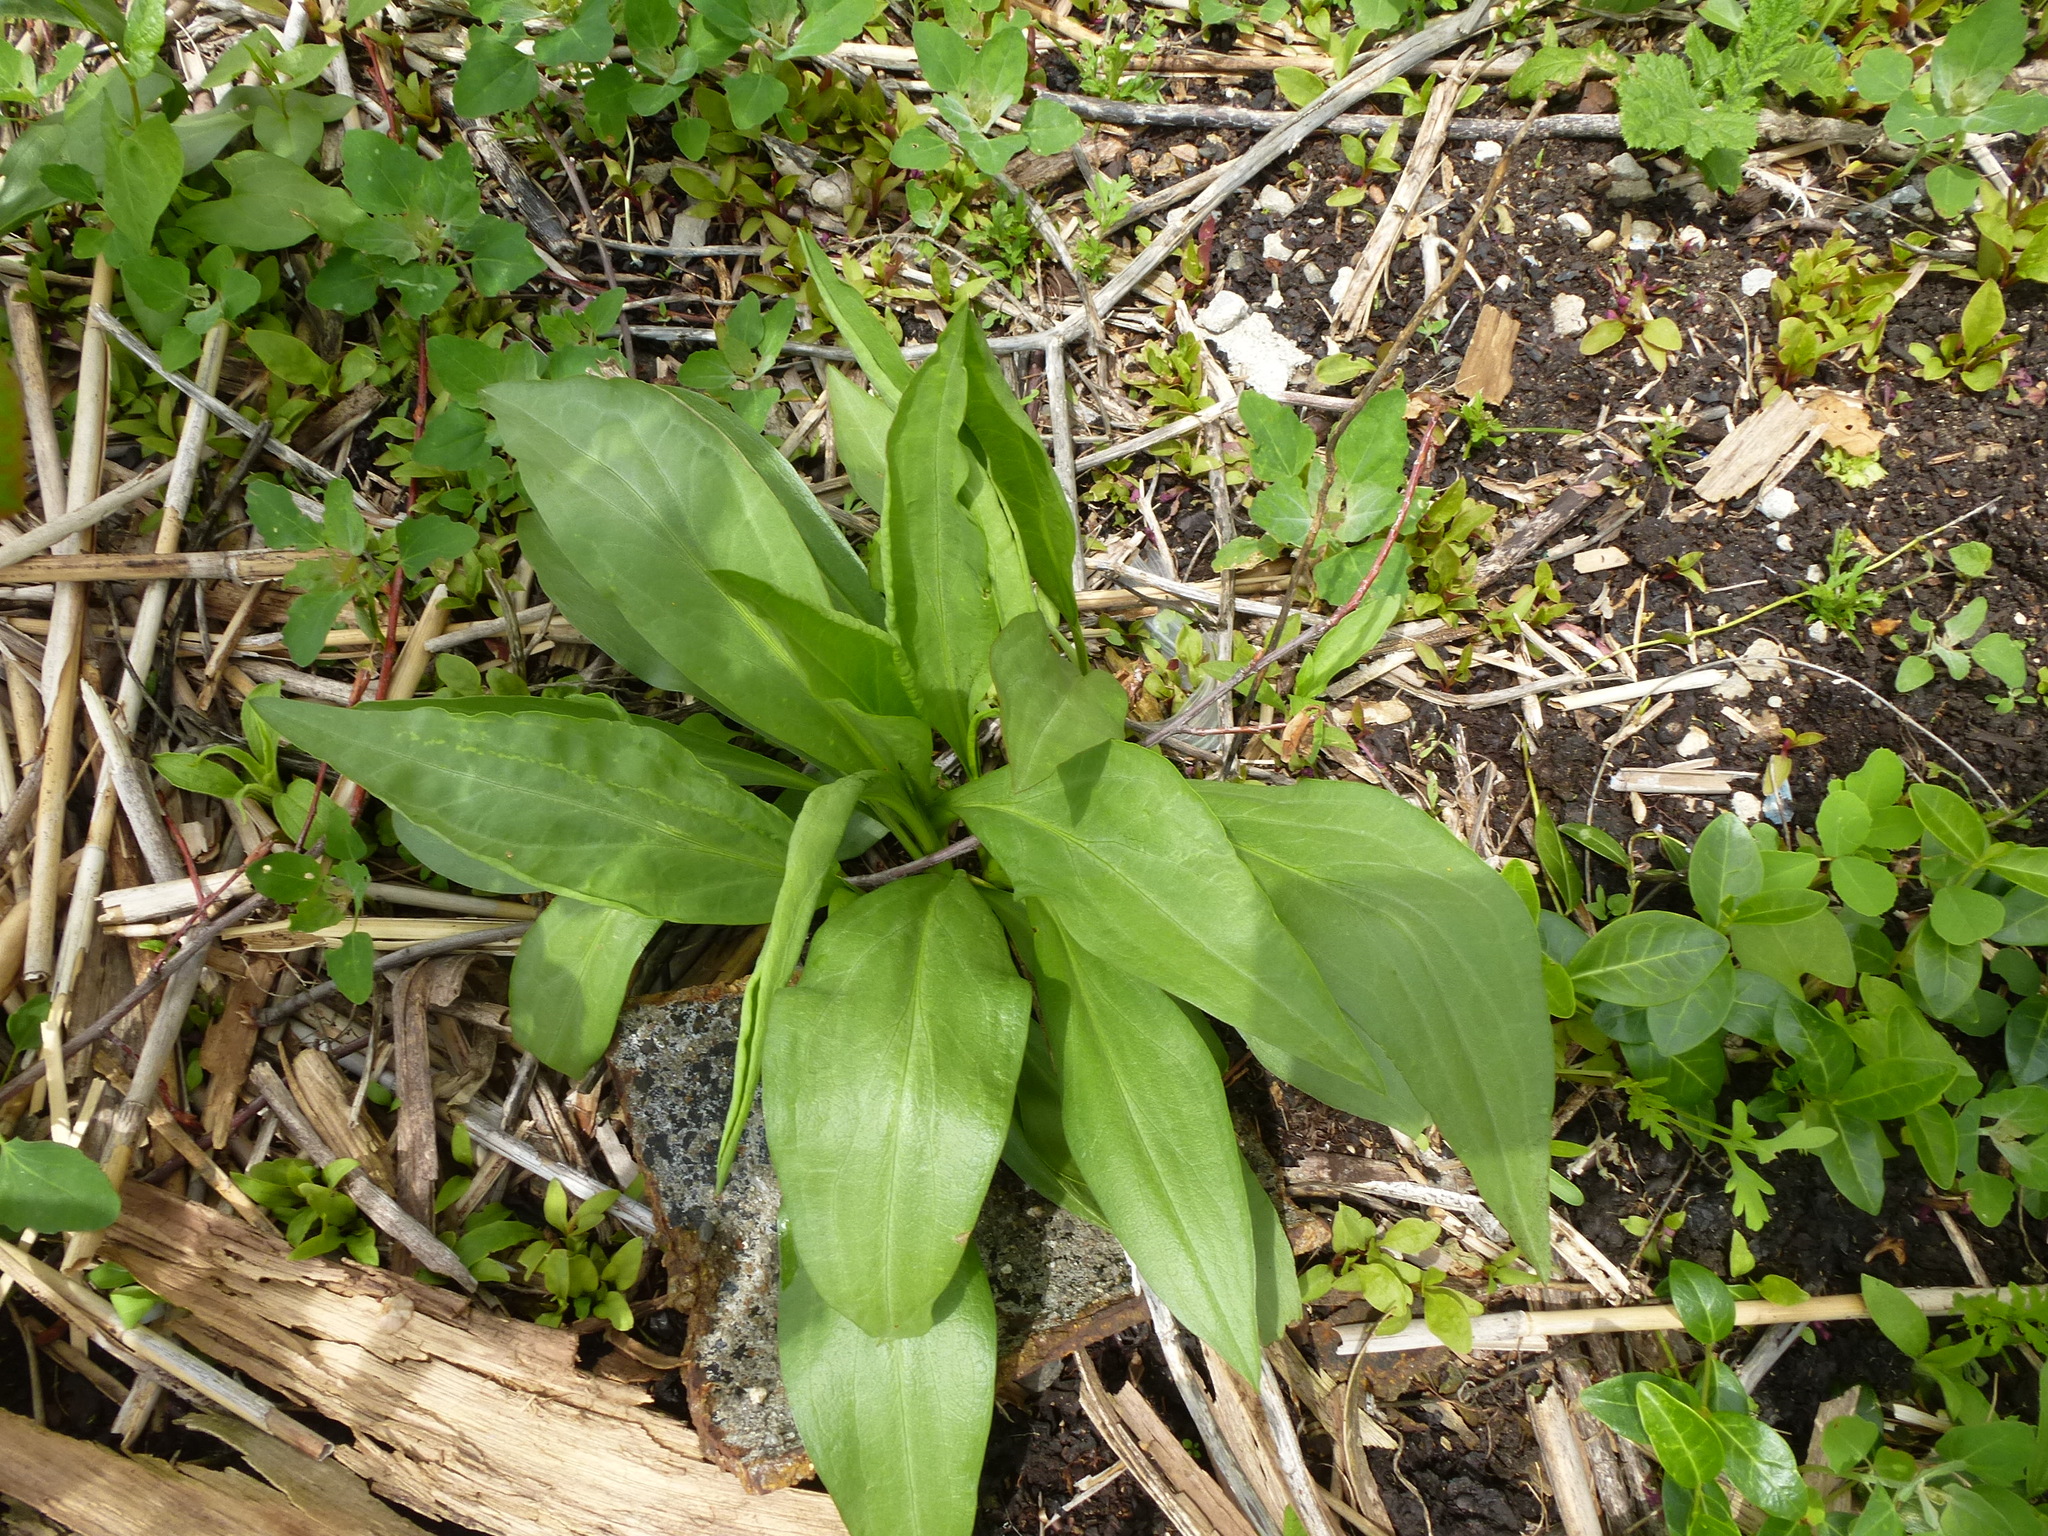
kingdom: Plantae
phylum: Tracheophyta
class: Magnoliopsida
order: Asterales
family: Asteraceae
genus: Solidago
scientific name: Solidago sempervirens
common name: Salt-marsh goldenrod
